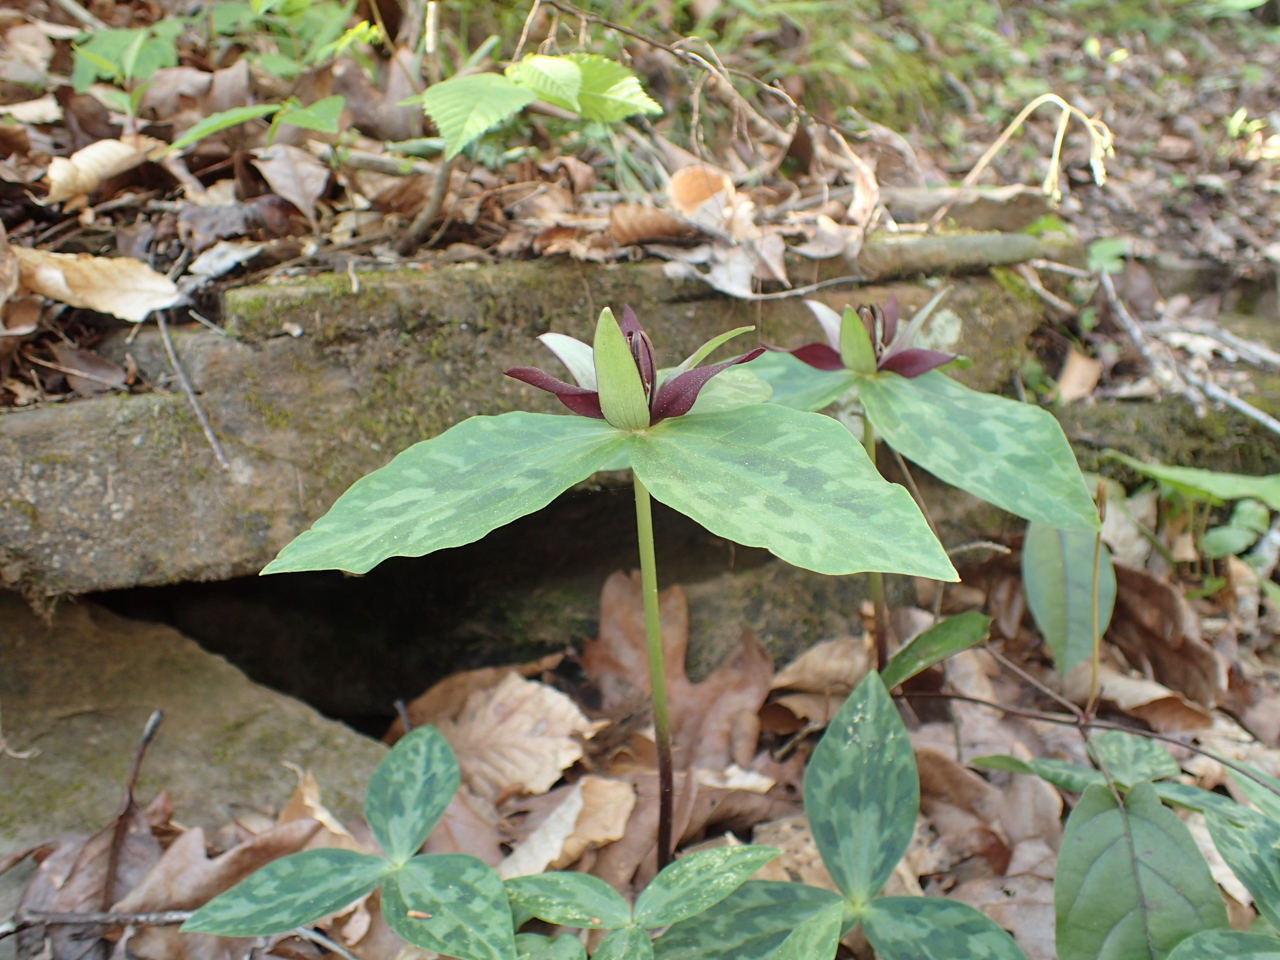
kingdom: Plantae
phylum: Tracheophyta
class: Liliopsida
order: Liliales
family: Melanthiaceae
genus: Trillium
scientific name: Trillium stamineum
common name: Blue ridge wakerobin
